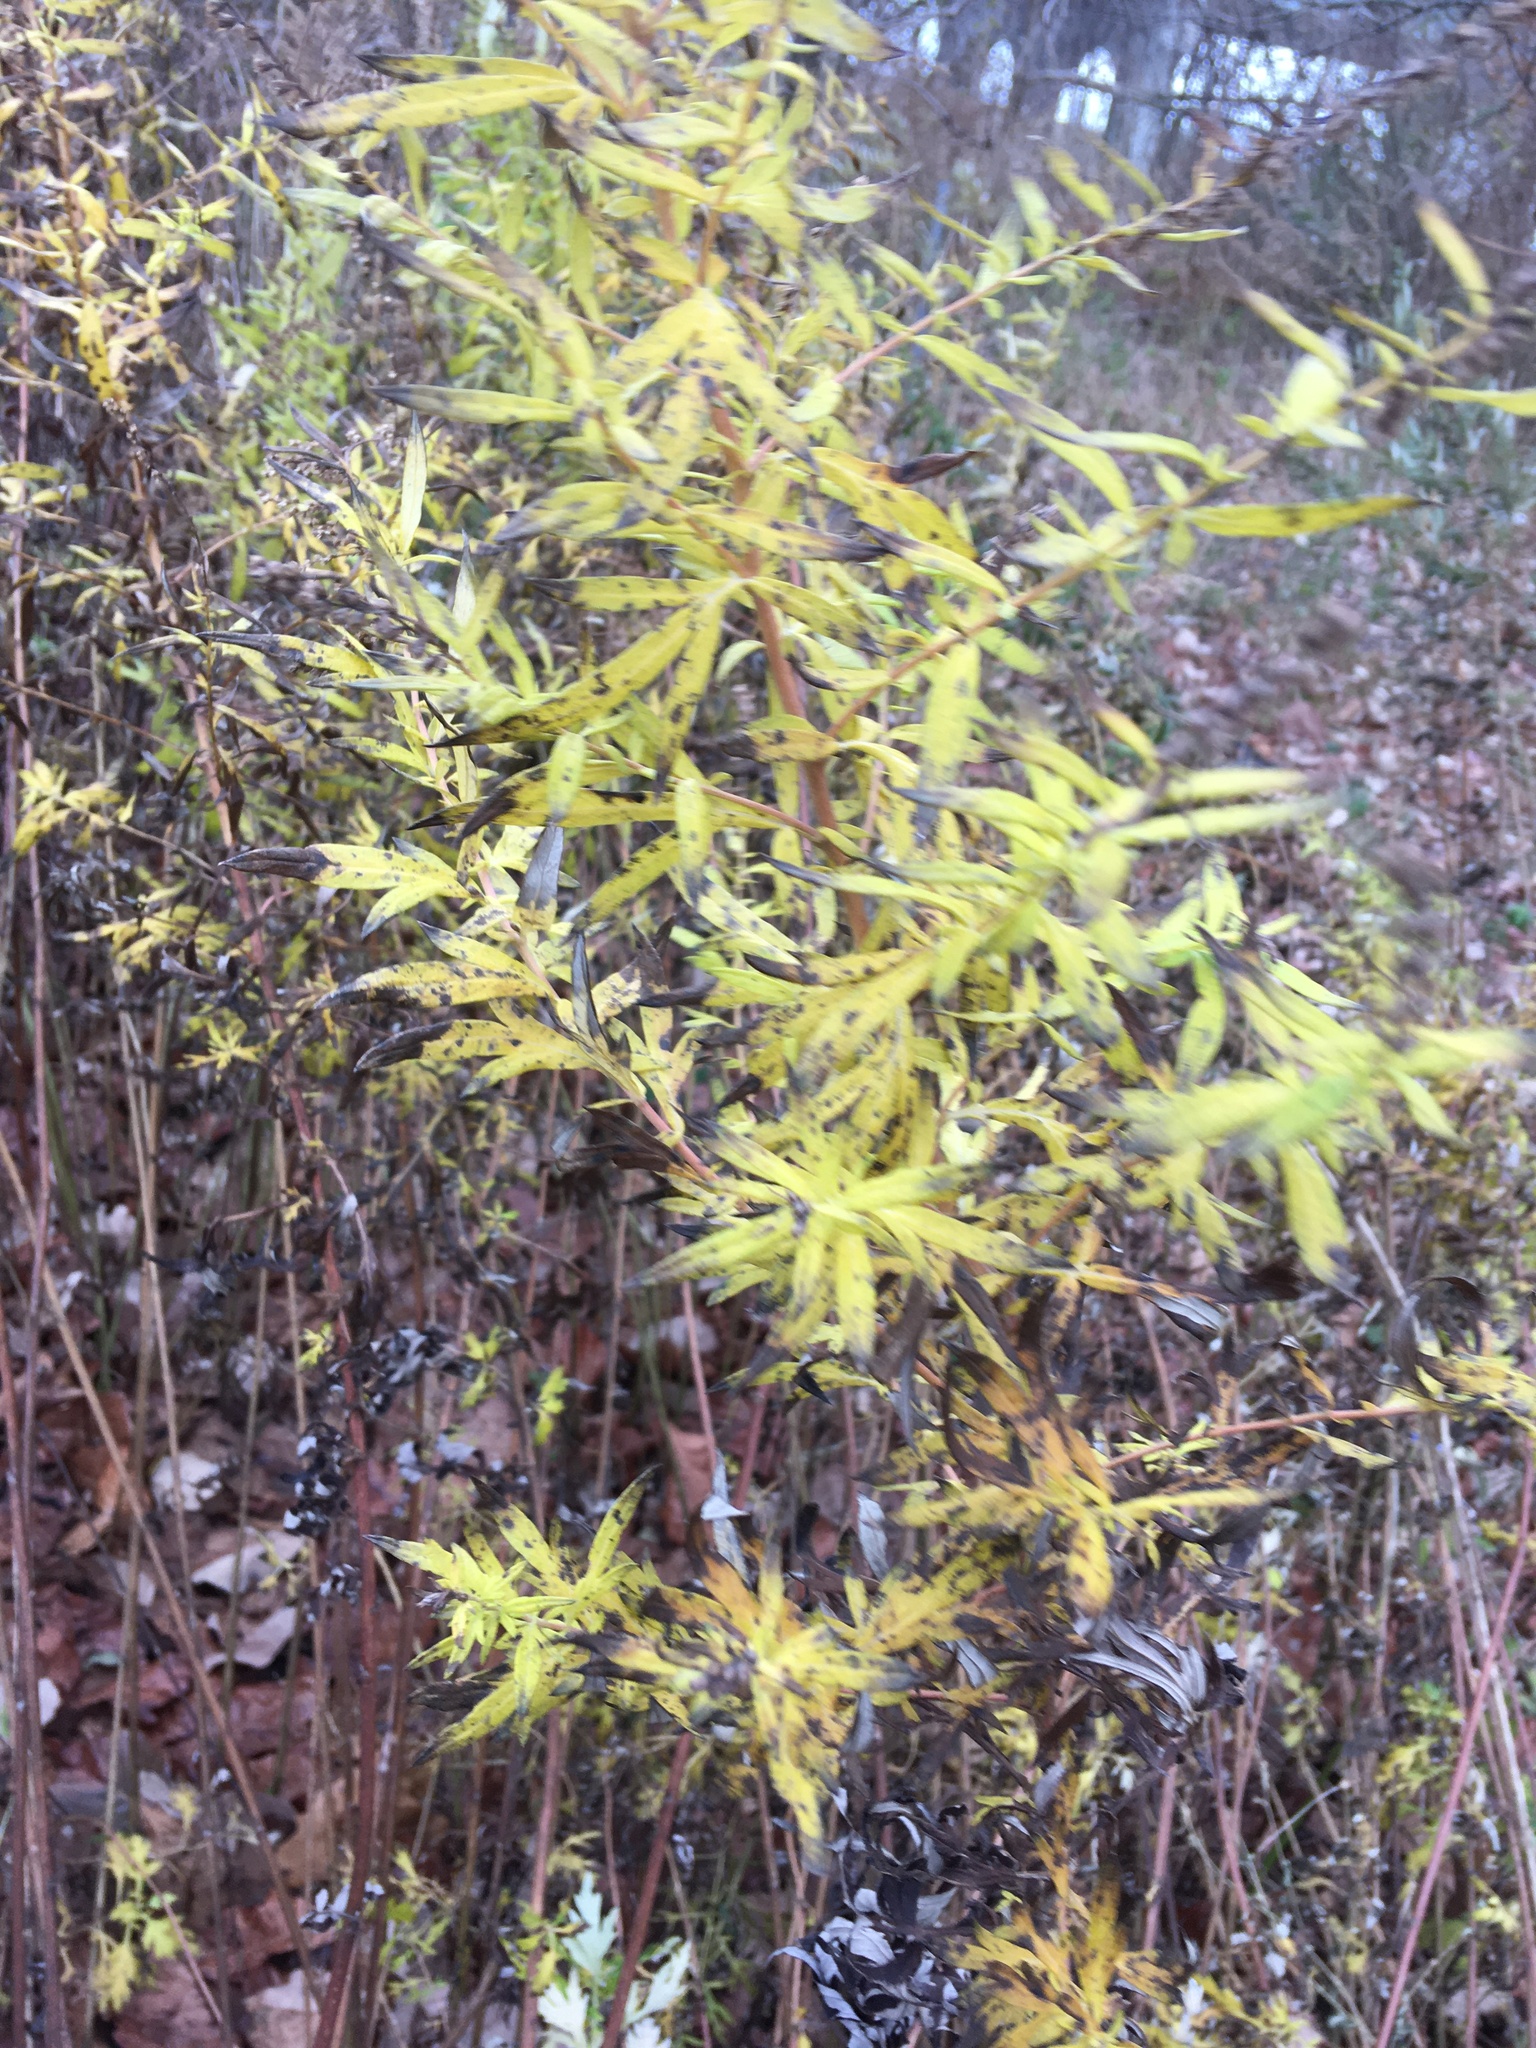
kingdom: Plantae
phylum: Tracheophyta
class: Magnoliopsida
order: Asterales
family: Asteraceae
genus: Artemisia
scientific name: Artemisia vulgaris
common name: Mugwort
